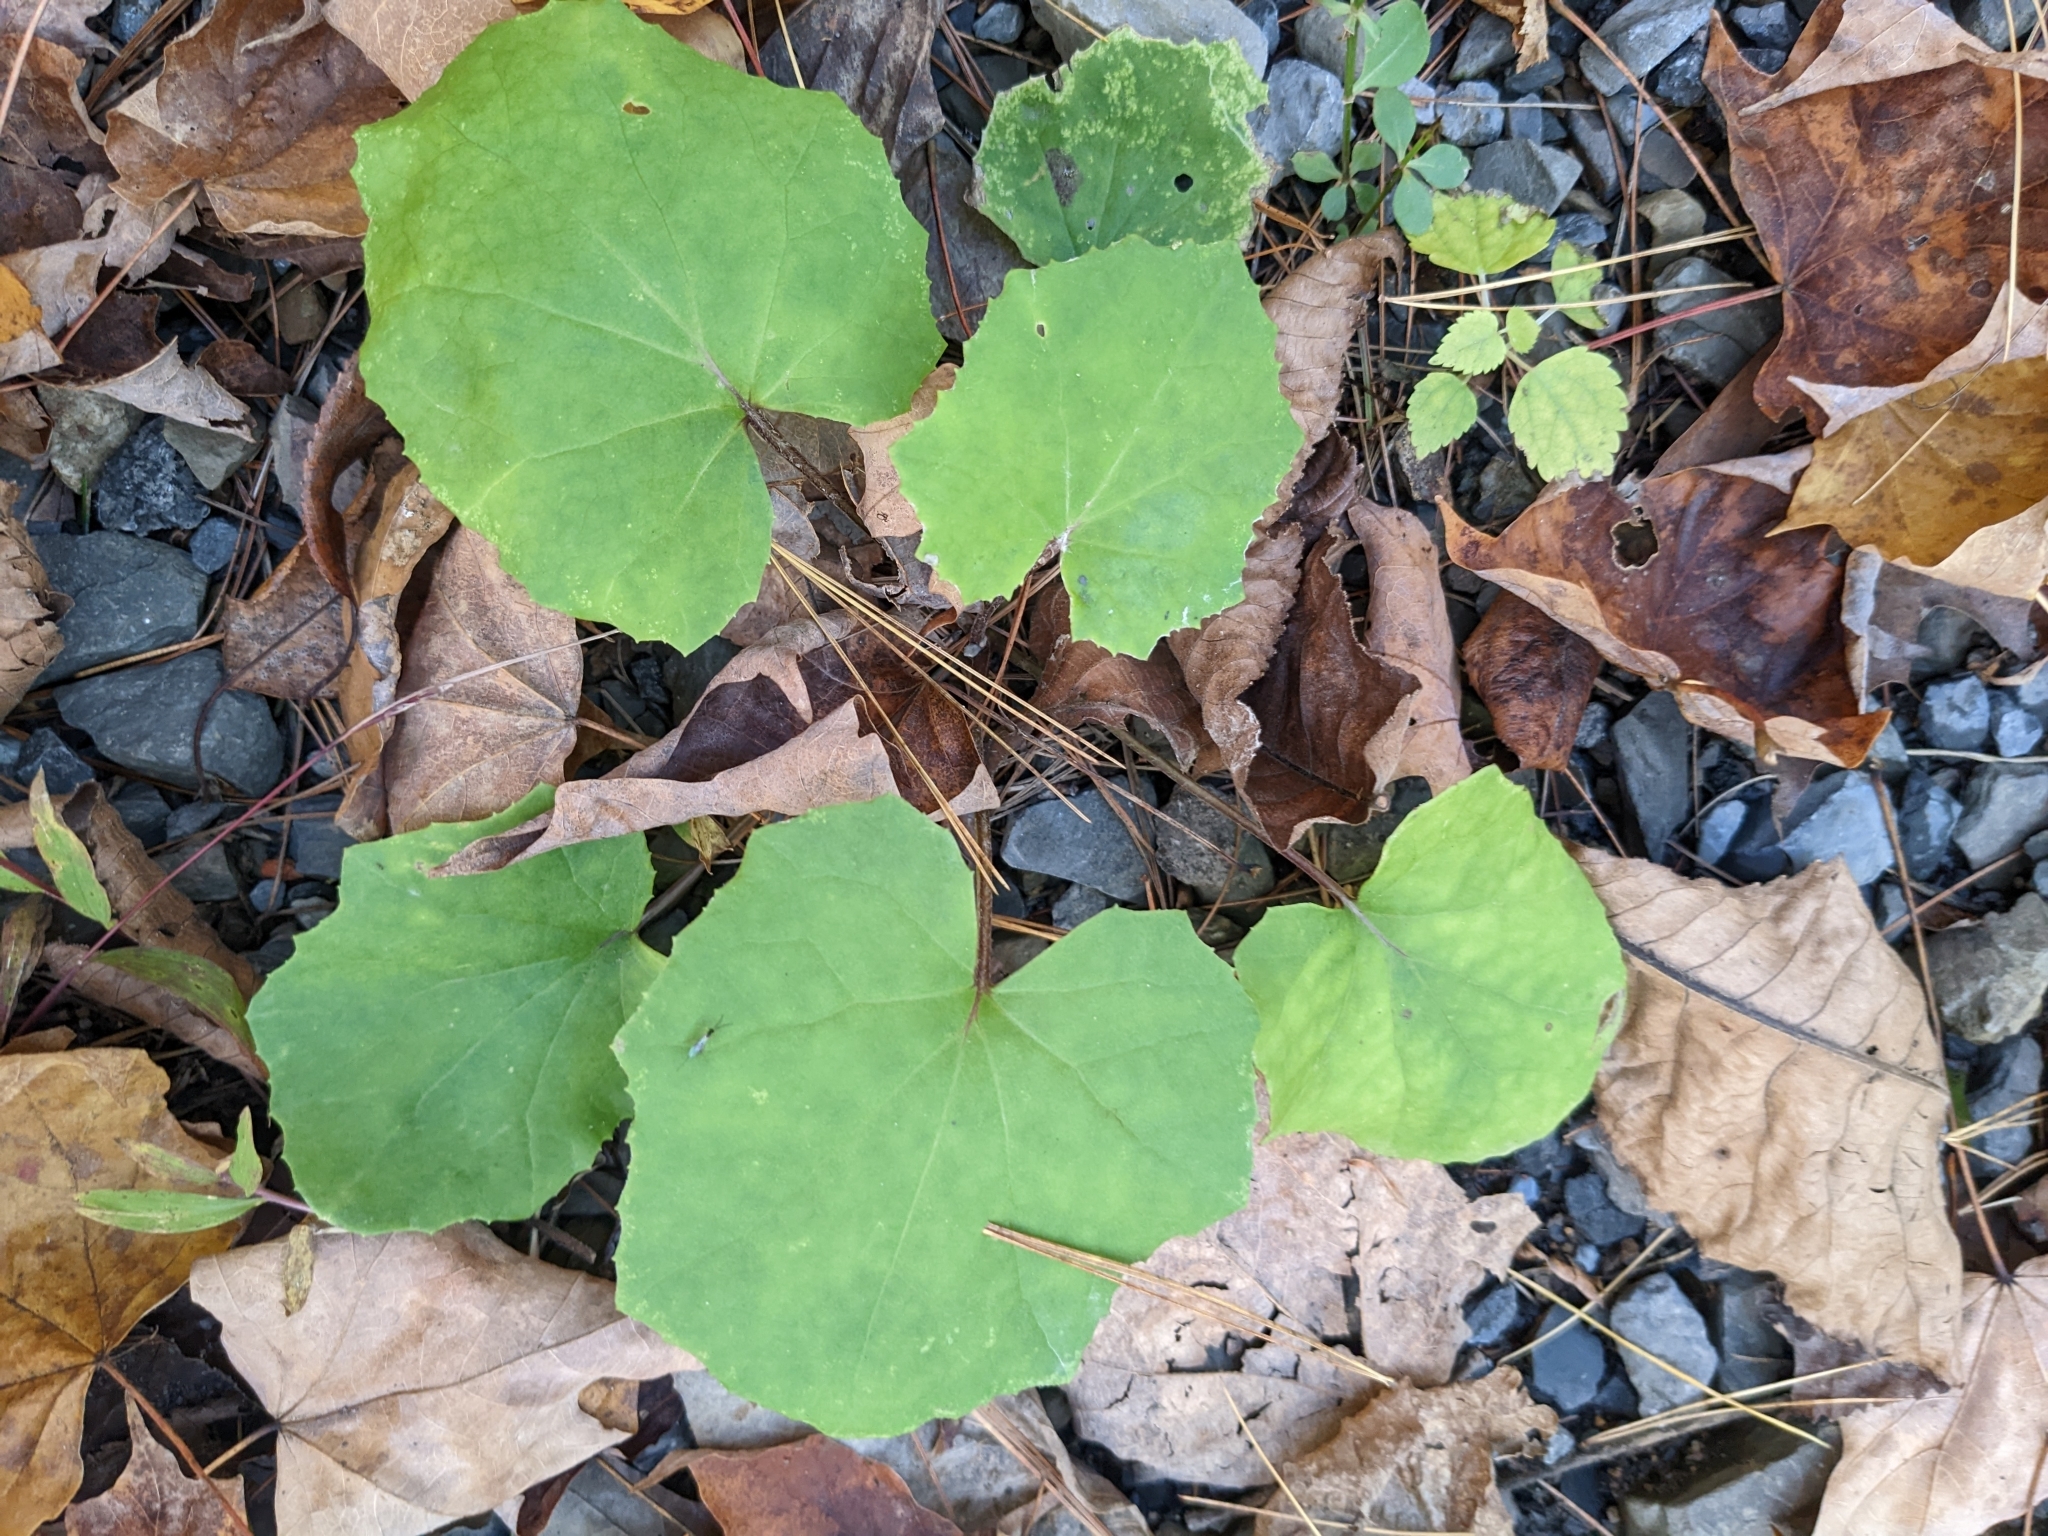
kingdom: Plantae
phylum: Tracheophyta
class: Magnoliopsida
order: Asterales
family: Asteraceae
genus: Tussilago
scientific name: Tussilago farfara
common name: Coltsfoot
